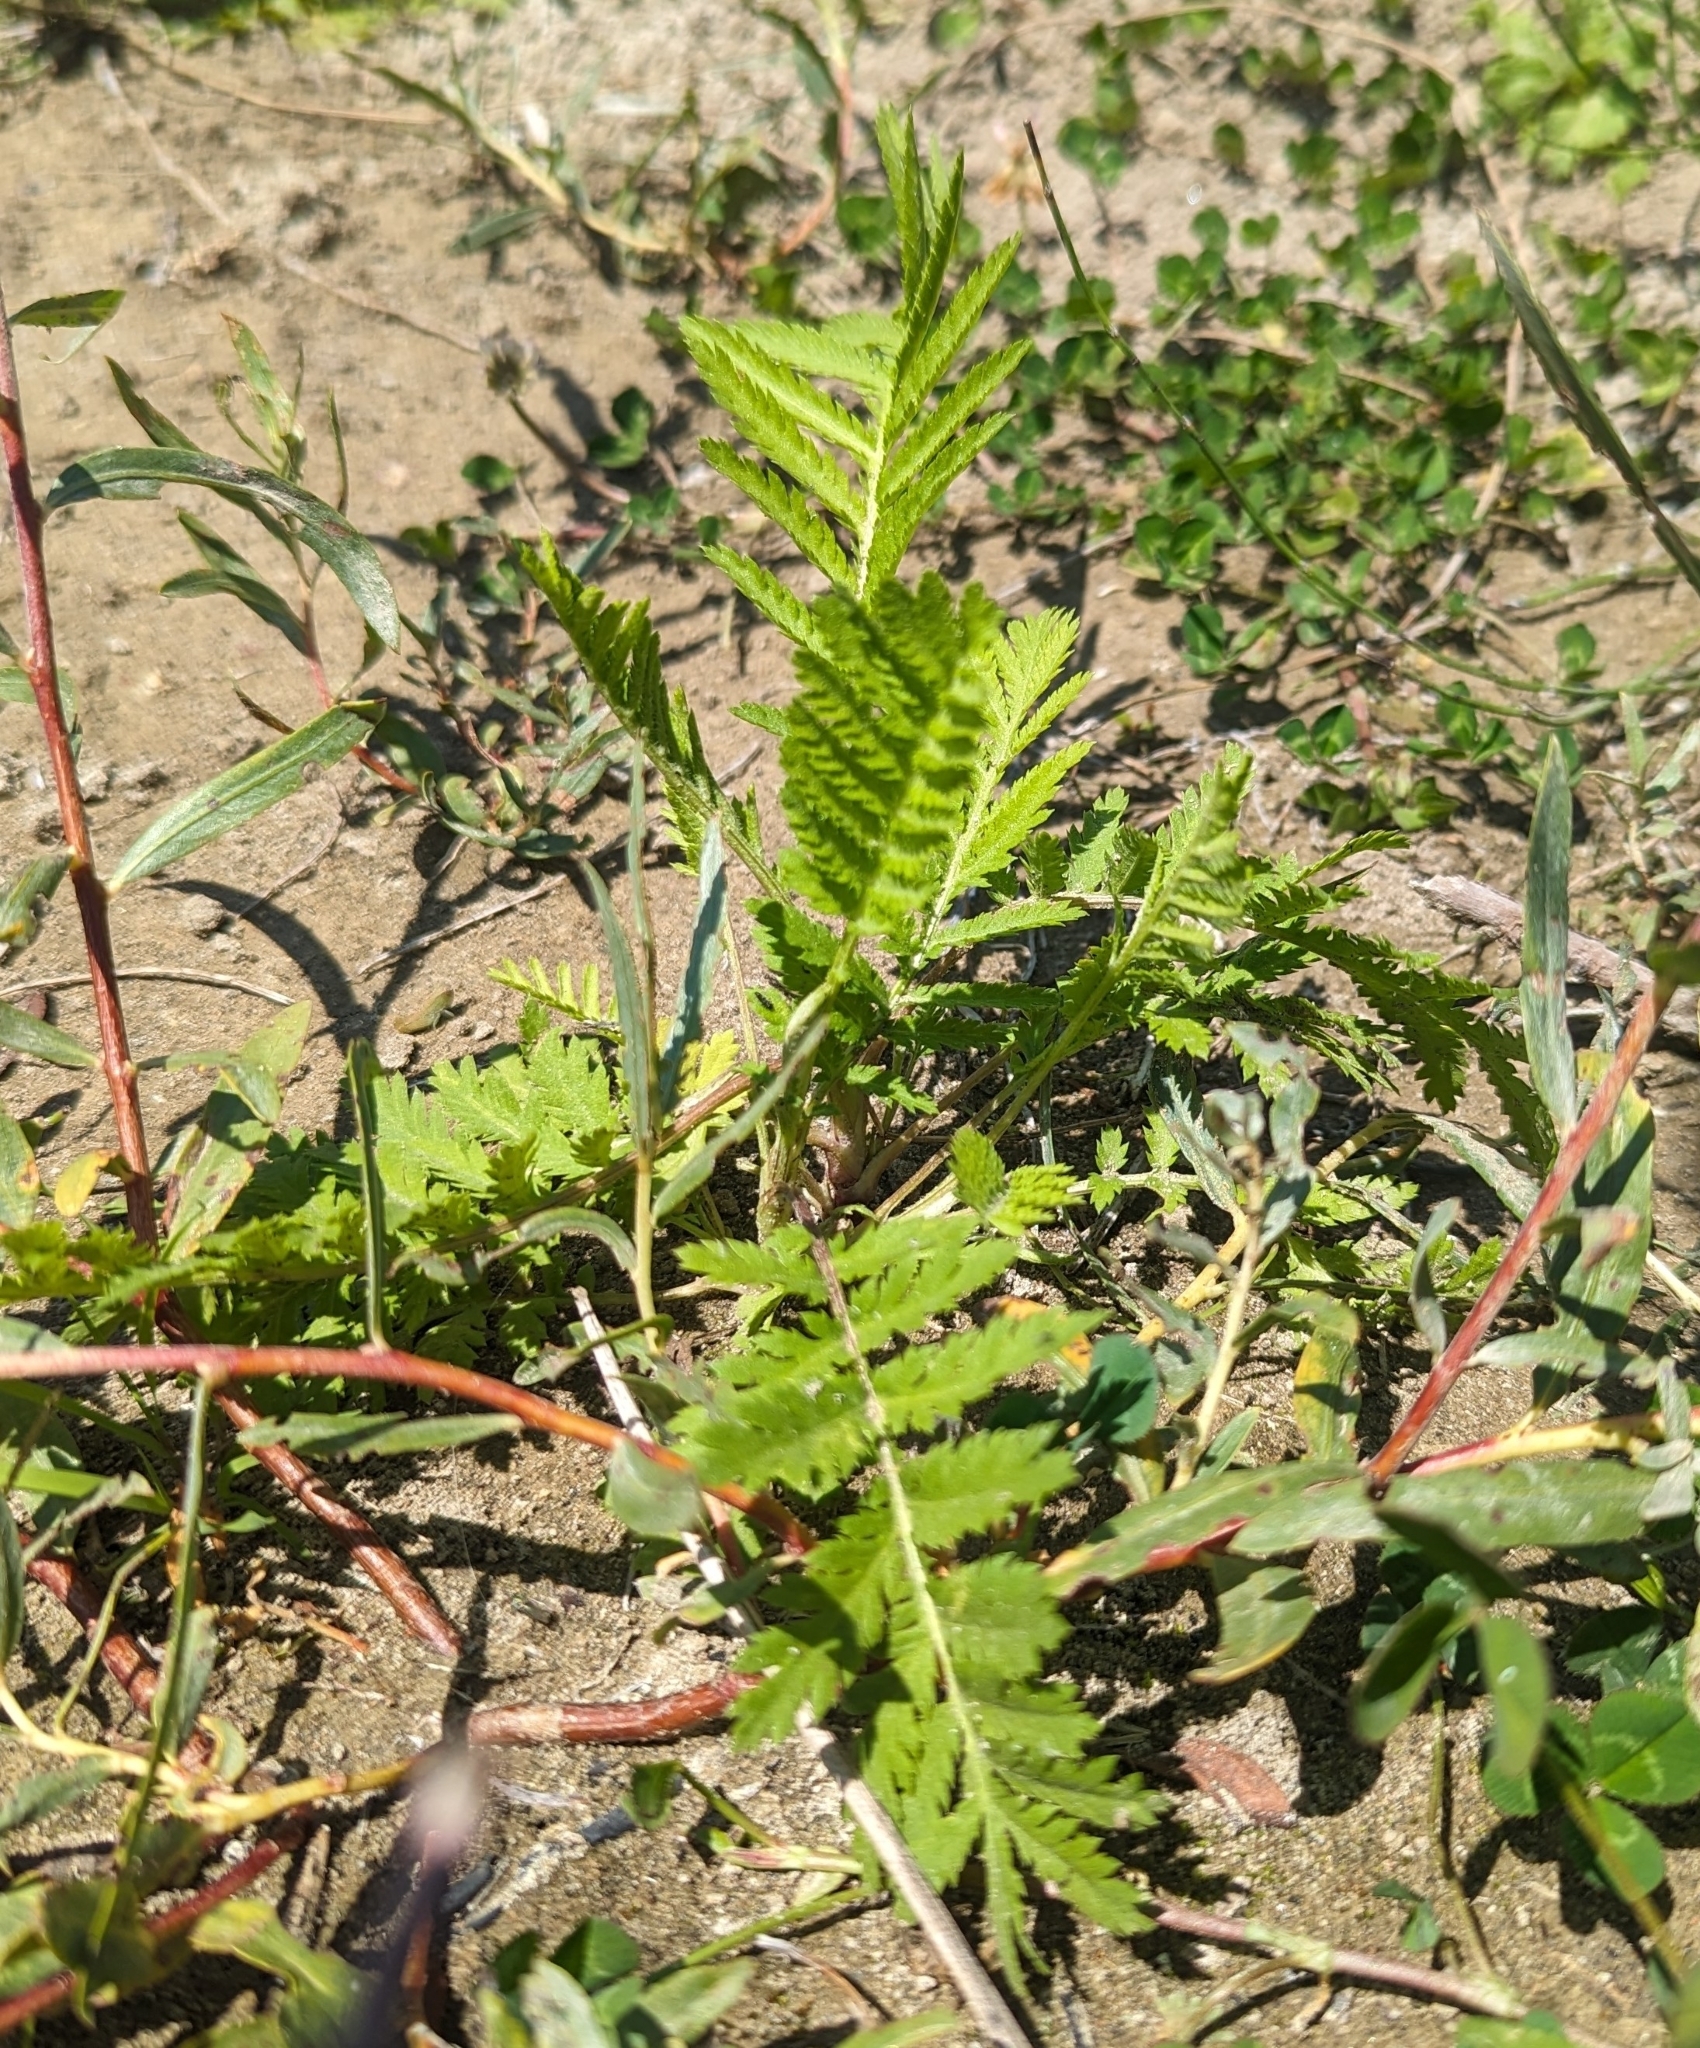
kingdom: Plantae
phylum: Tracheophyta
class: Magnoliopsida
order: Rosales
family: Rosaceae
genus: Argentina
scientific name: Argentina anserina
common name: Common silverweed
